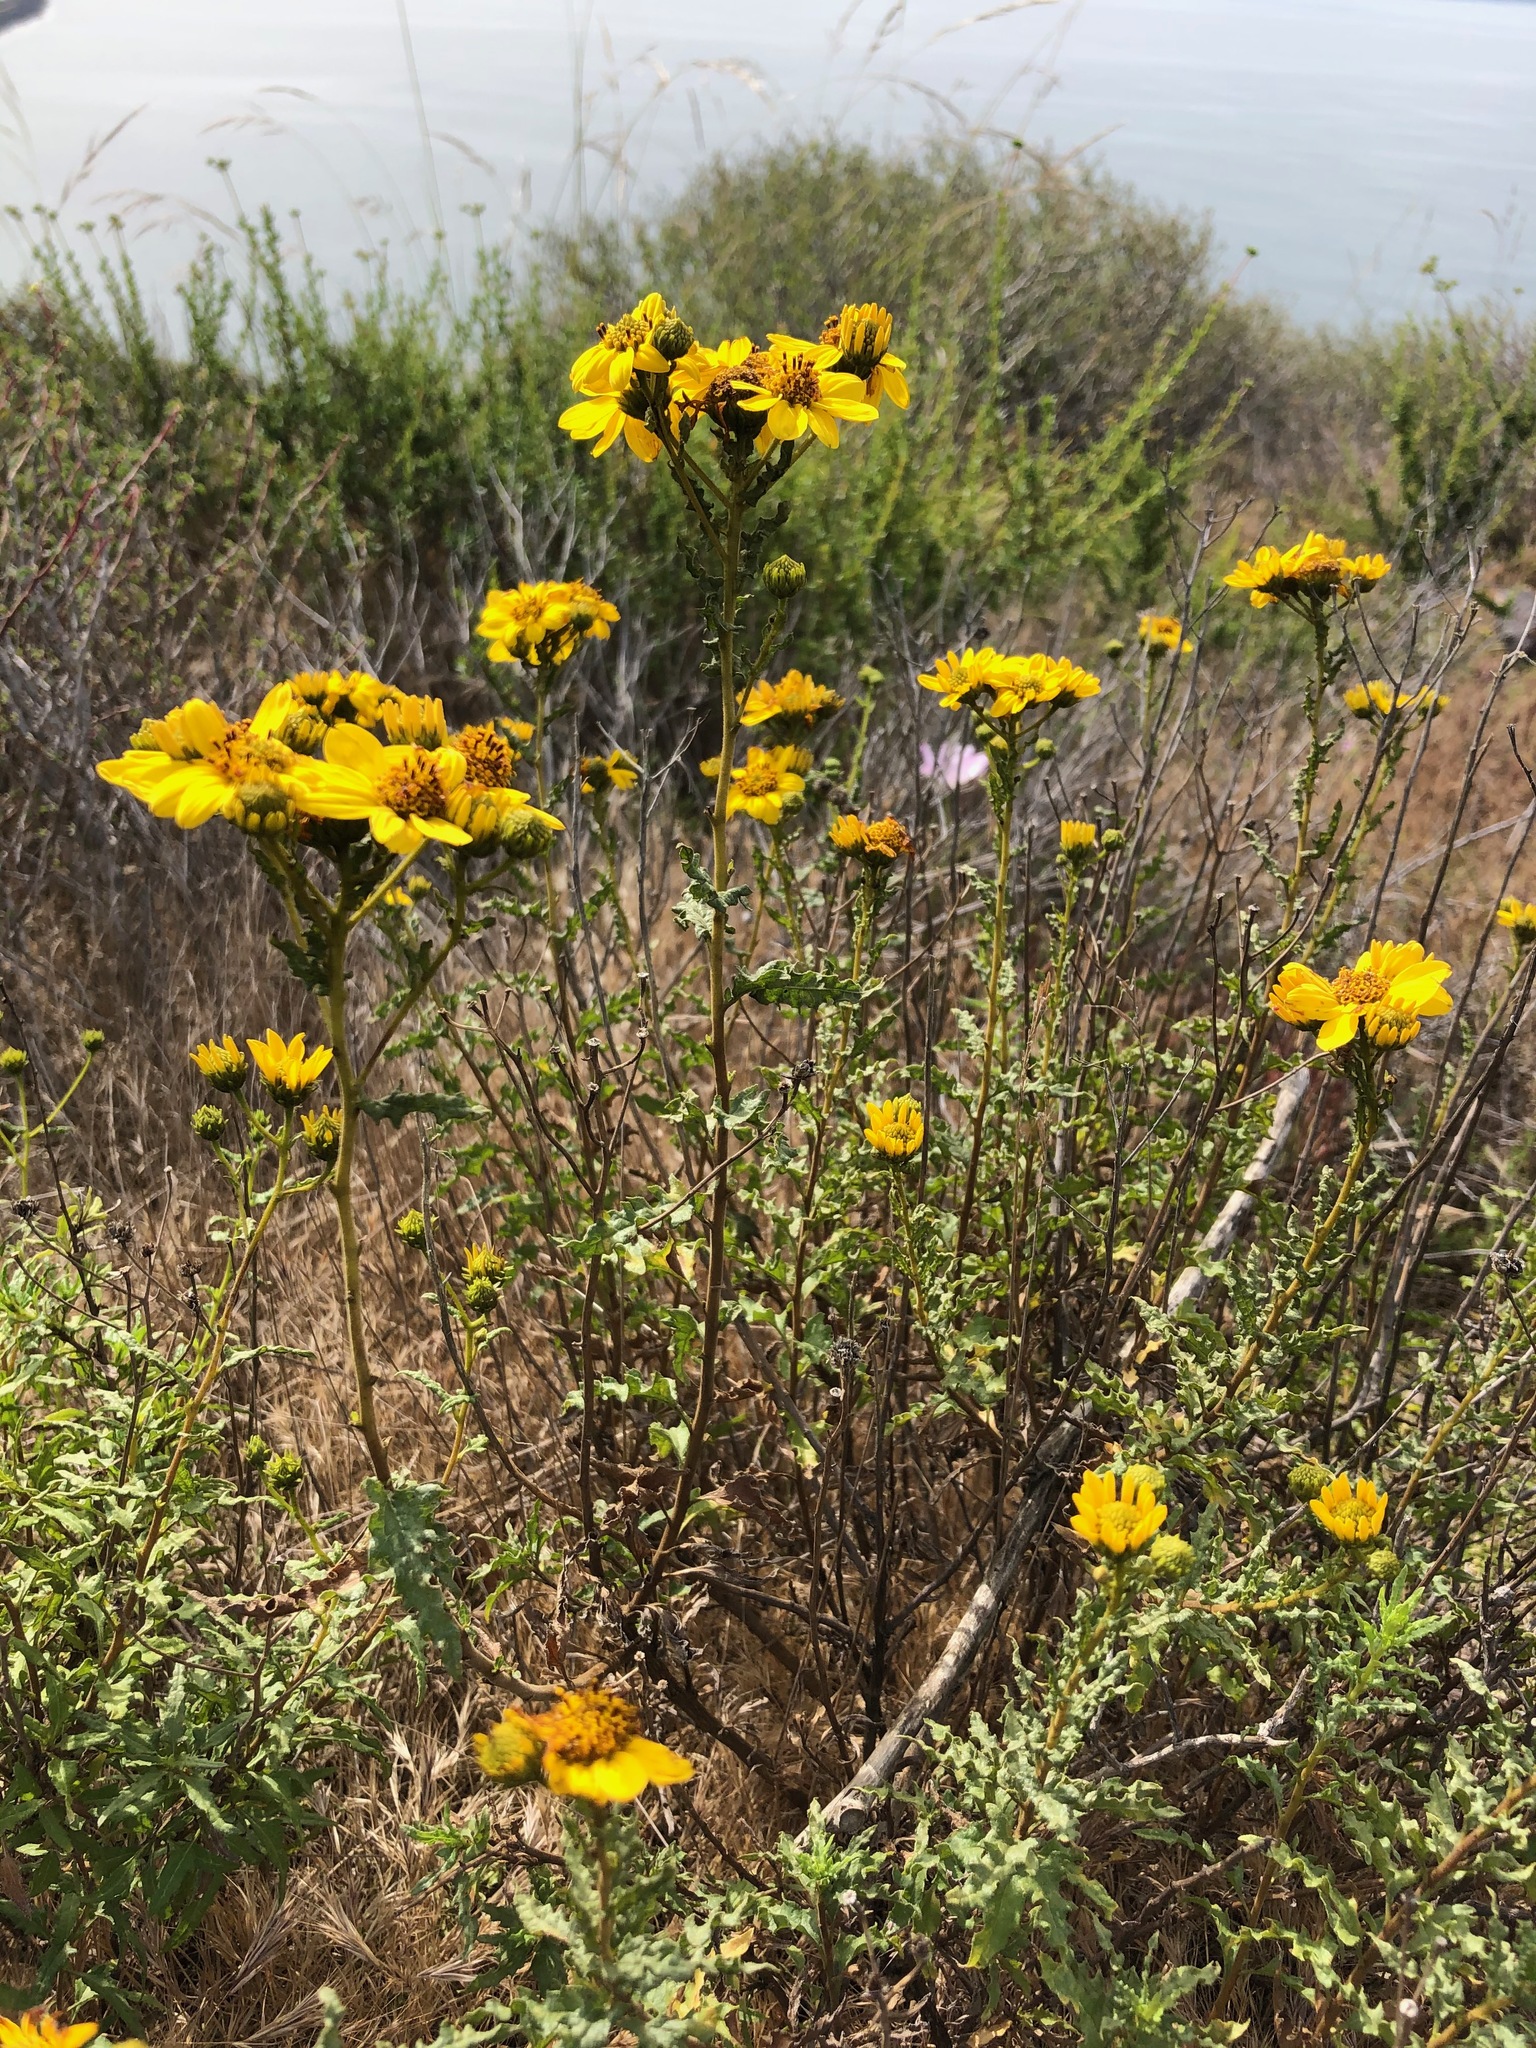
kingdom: Plantae
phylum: Tracheophyta
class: Magnoliopsida
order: Asterales
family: Asteraceae
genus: Bahiopsis
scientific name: Bahiopsis laciniata
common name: San diego county viguiera
